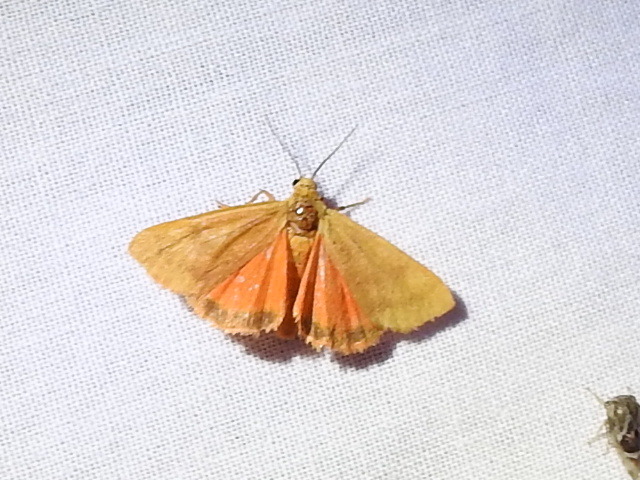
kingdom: Animalia
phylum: Arthropoda
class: Insecta
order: Lepidoptera
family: Erebidae
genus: Virbia
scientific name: Virbia aurantiaca
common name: Orange virbia moth
